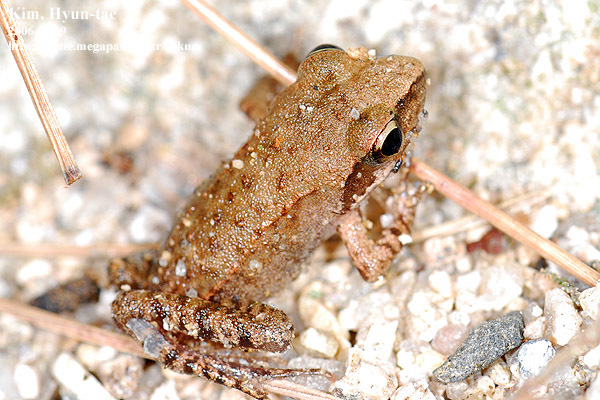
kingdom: Animalia
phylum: Chordata
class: Amphibia
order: Anura
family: Ranidae
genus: Rana
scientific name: Rana uenoi
